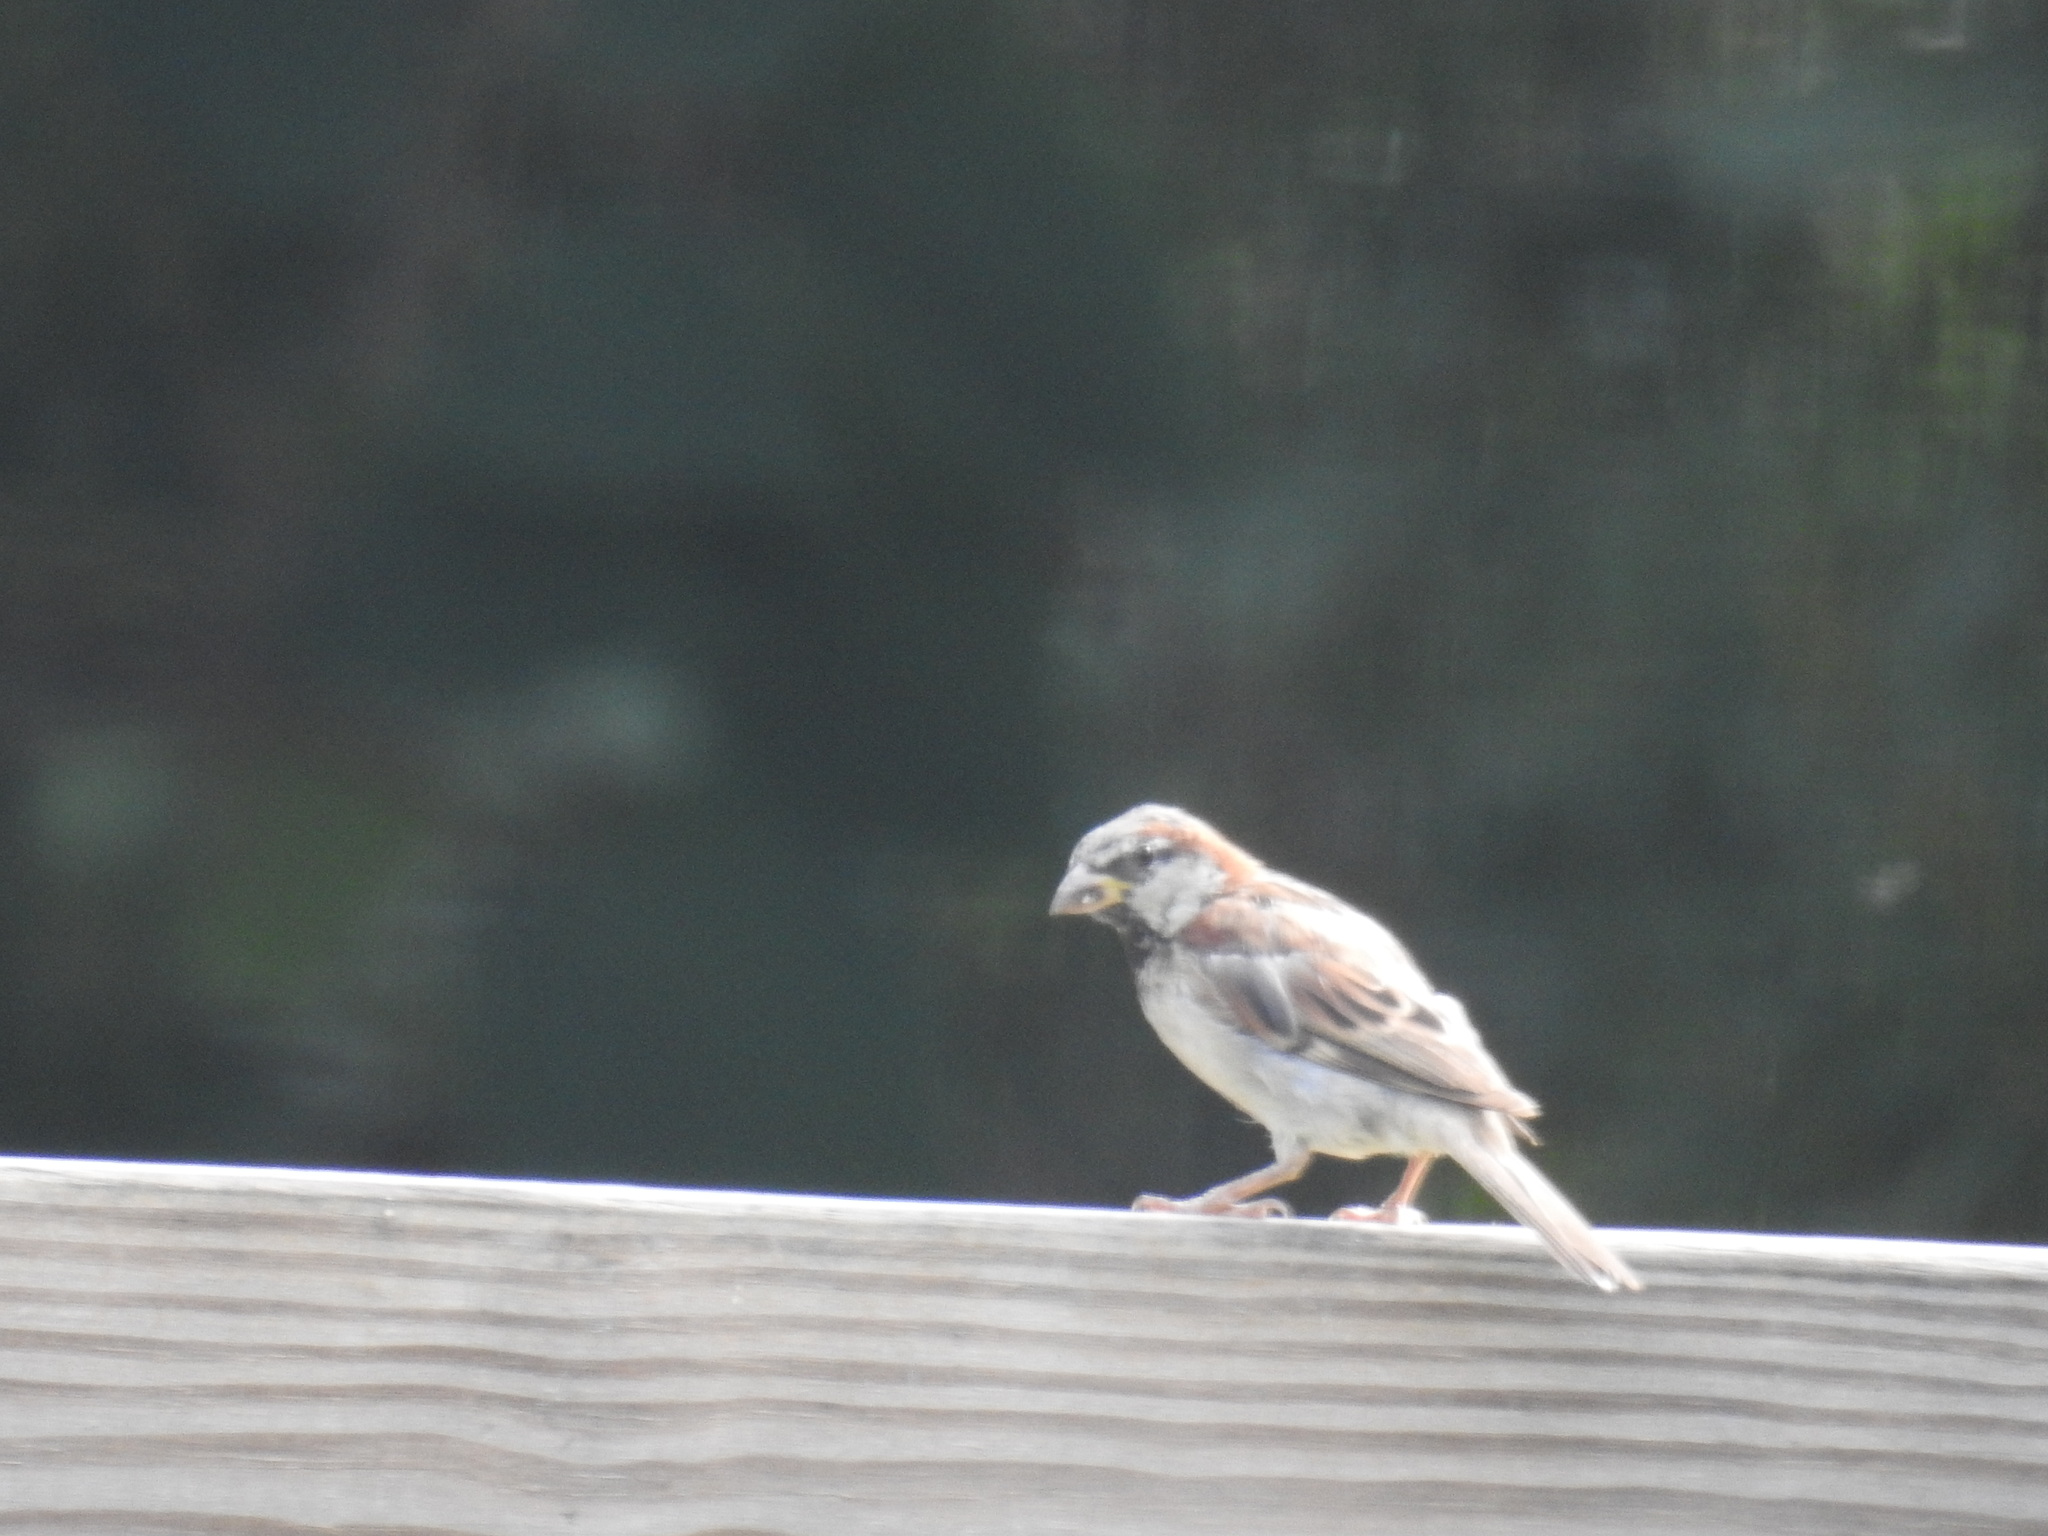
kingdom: Animalia
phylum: Chordata
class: Aves
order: Passeriformes
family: Passeridae
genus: Passer
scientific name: Passer domesticus
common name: House sparrow
